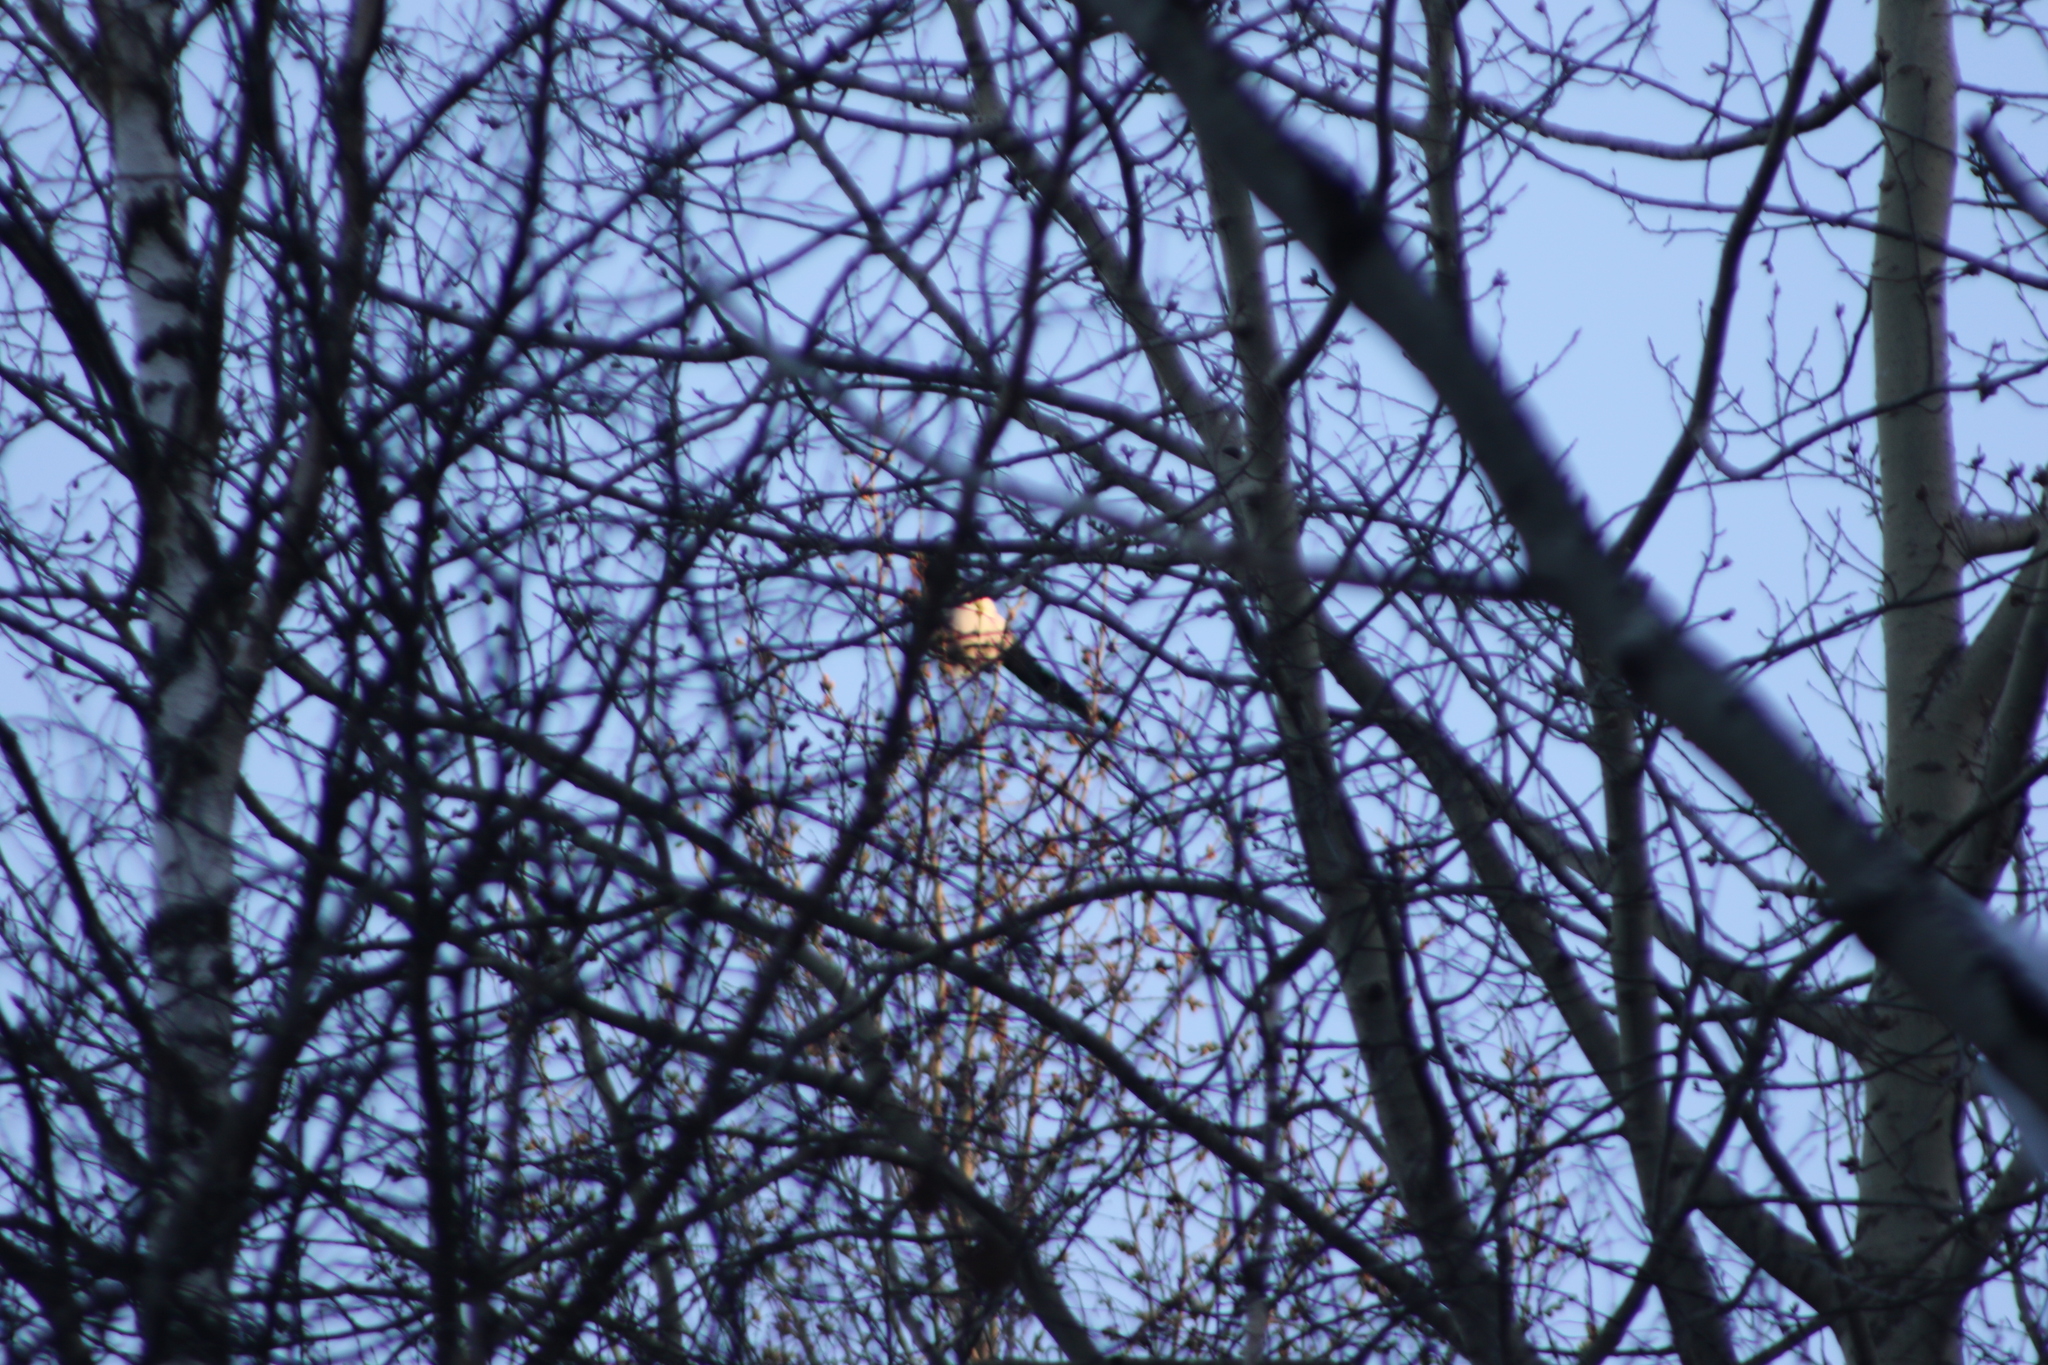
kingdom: Animalia
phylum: Chordata
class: Aves
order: Passeriformes
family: Corvidae
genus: Pica
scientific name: Pica pica
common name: Eurasian magpie
